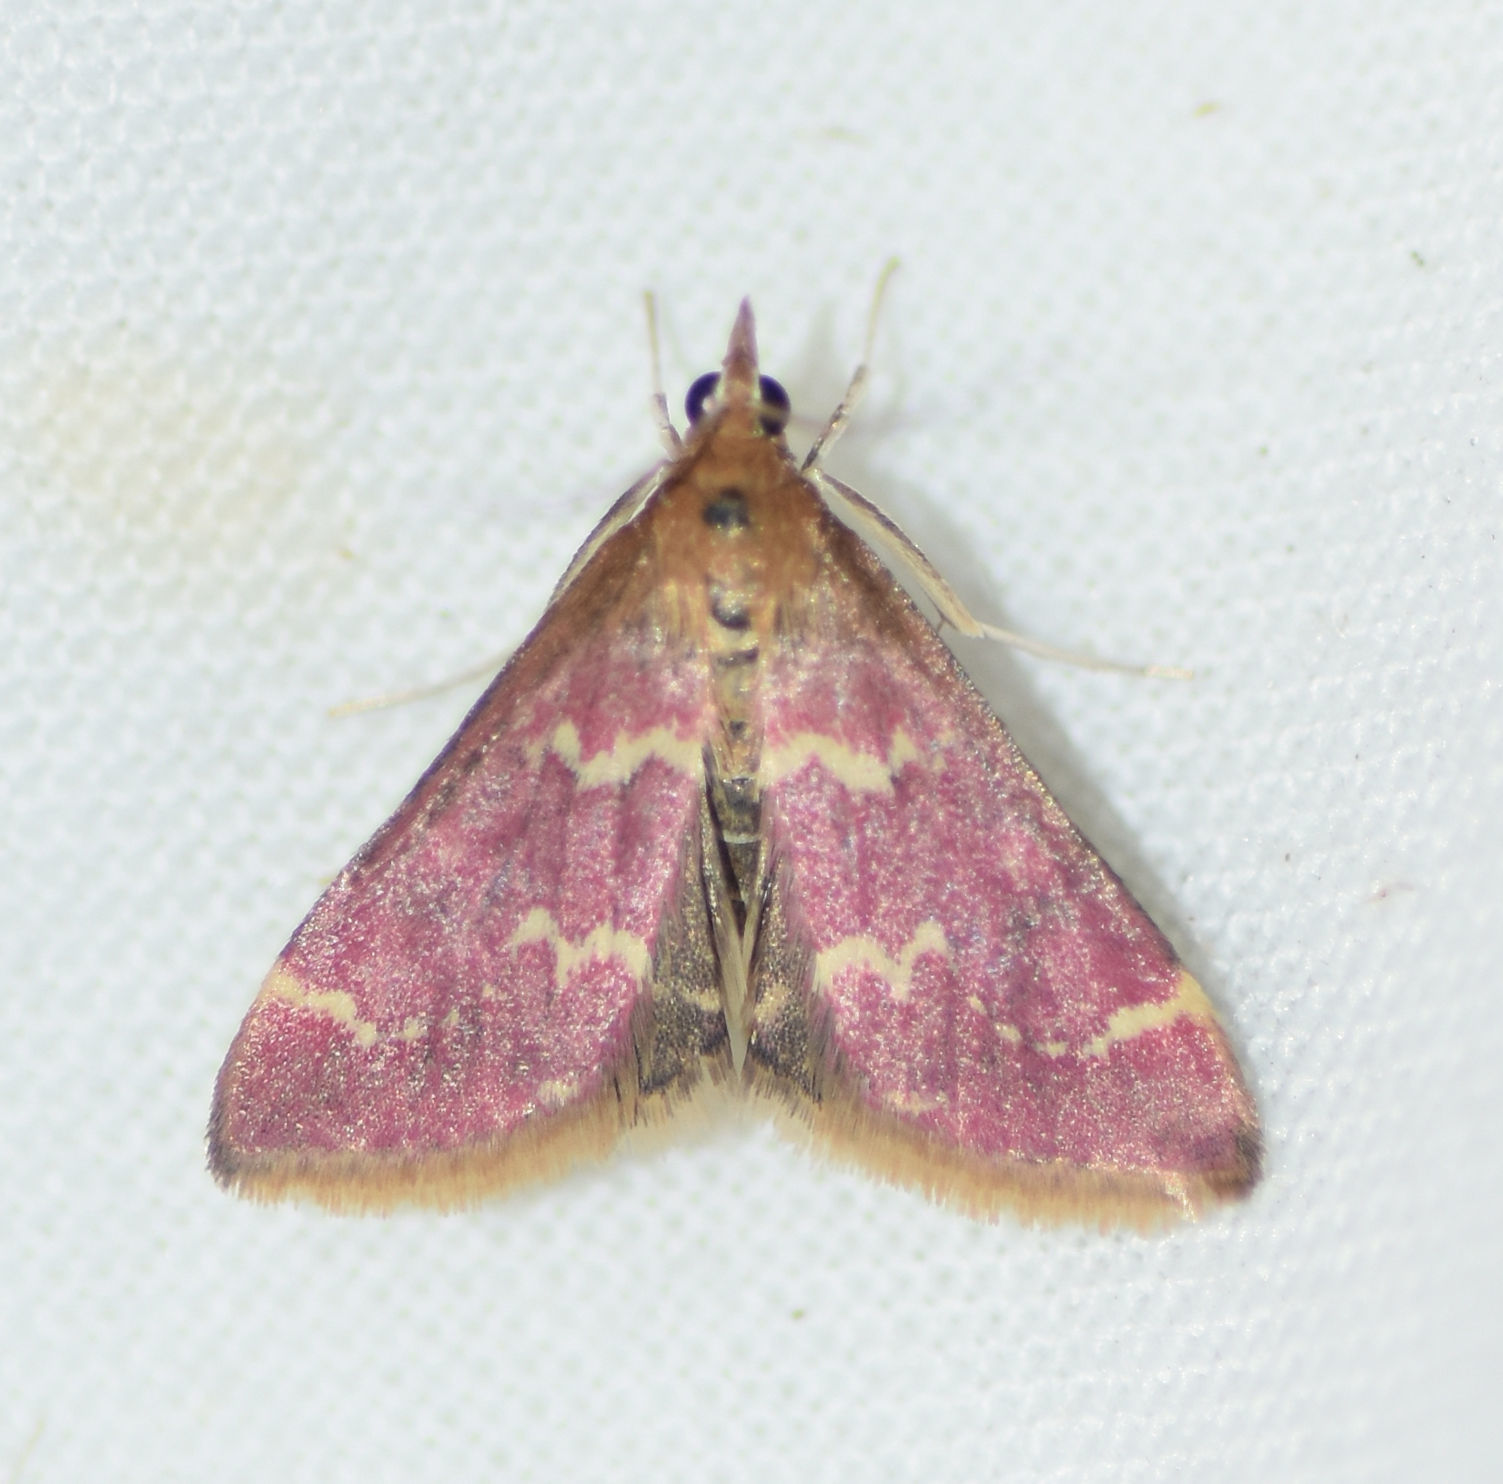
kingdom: Animalia
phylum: Arthropoda
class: Insecta
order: Lepidoptera
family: Crambidae
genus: Pyrausta
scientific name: Pyrausta signatalis
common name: Raspberry pyrausta moth
